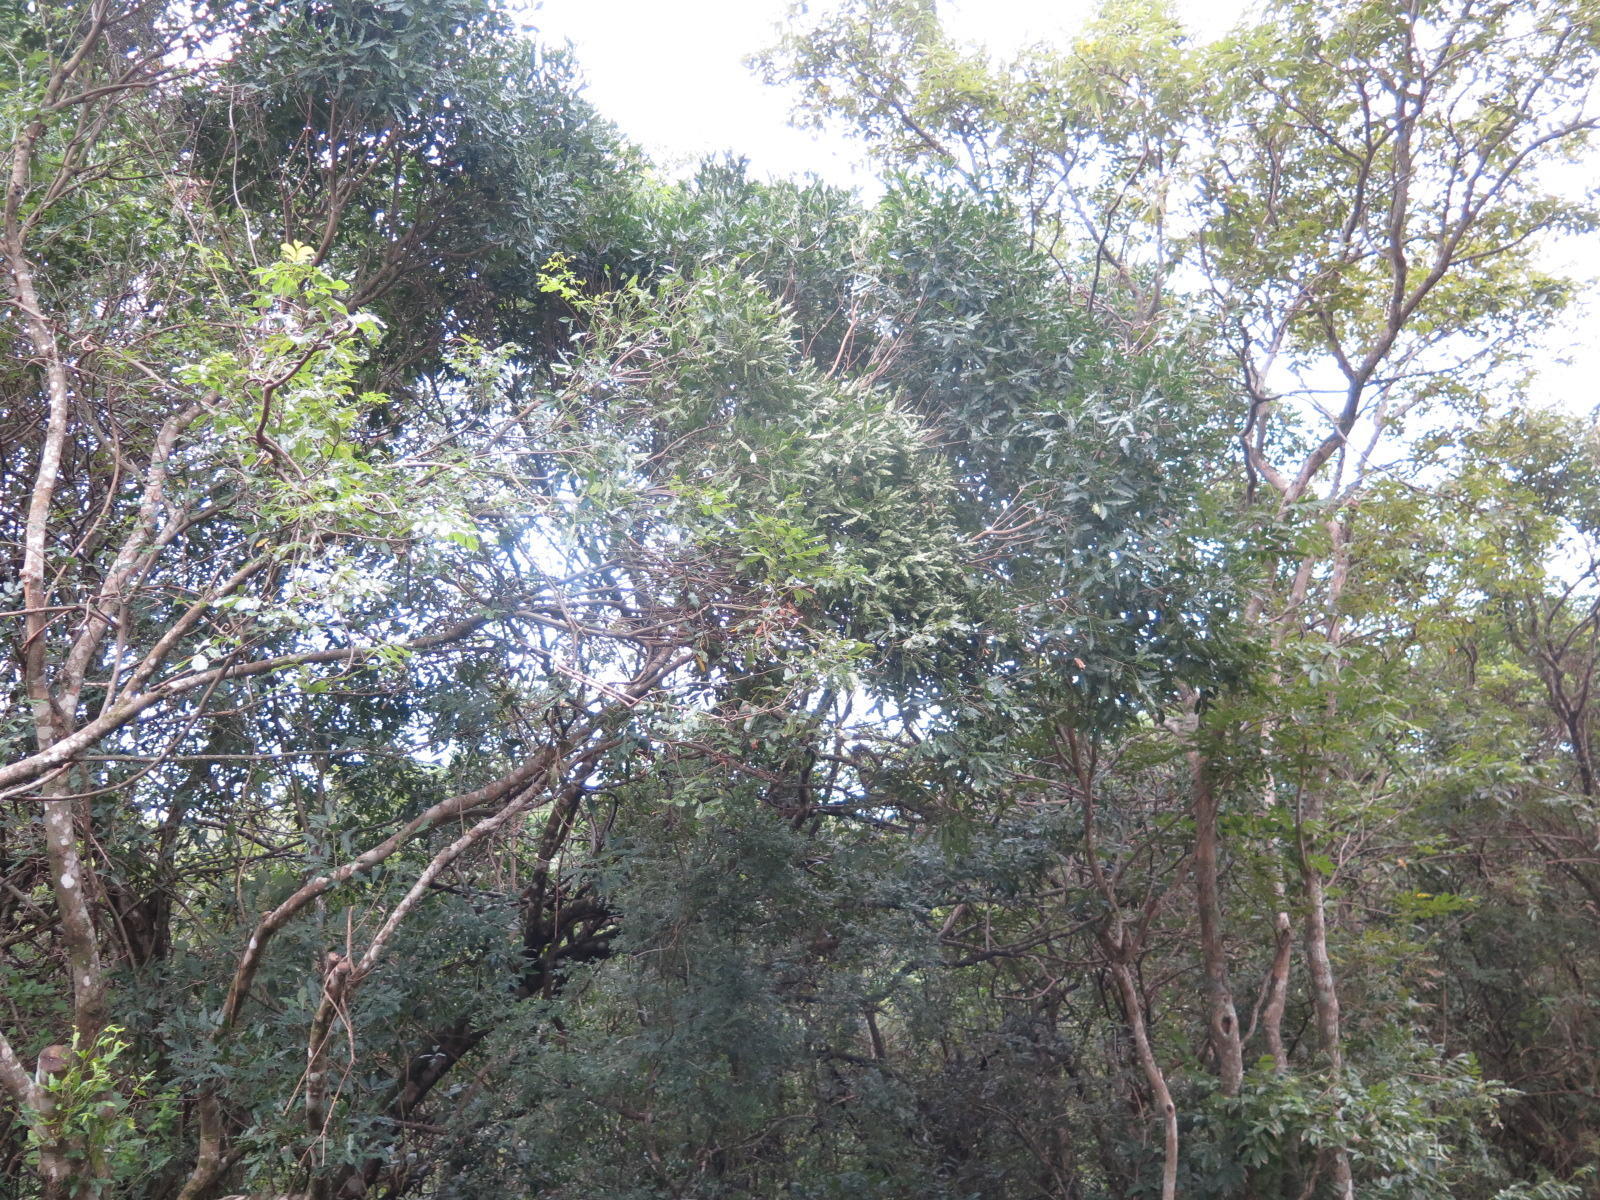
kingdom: Plantae
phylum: Tracheophyta
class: Magnoliopsida
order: Sapindales
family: Rutaceae
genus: Vepris
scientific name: Vepris lanceolata
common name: White ironwood
